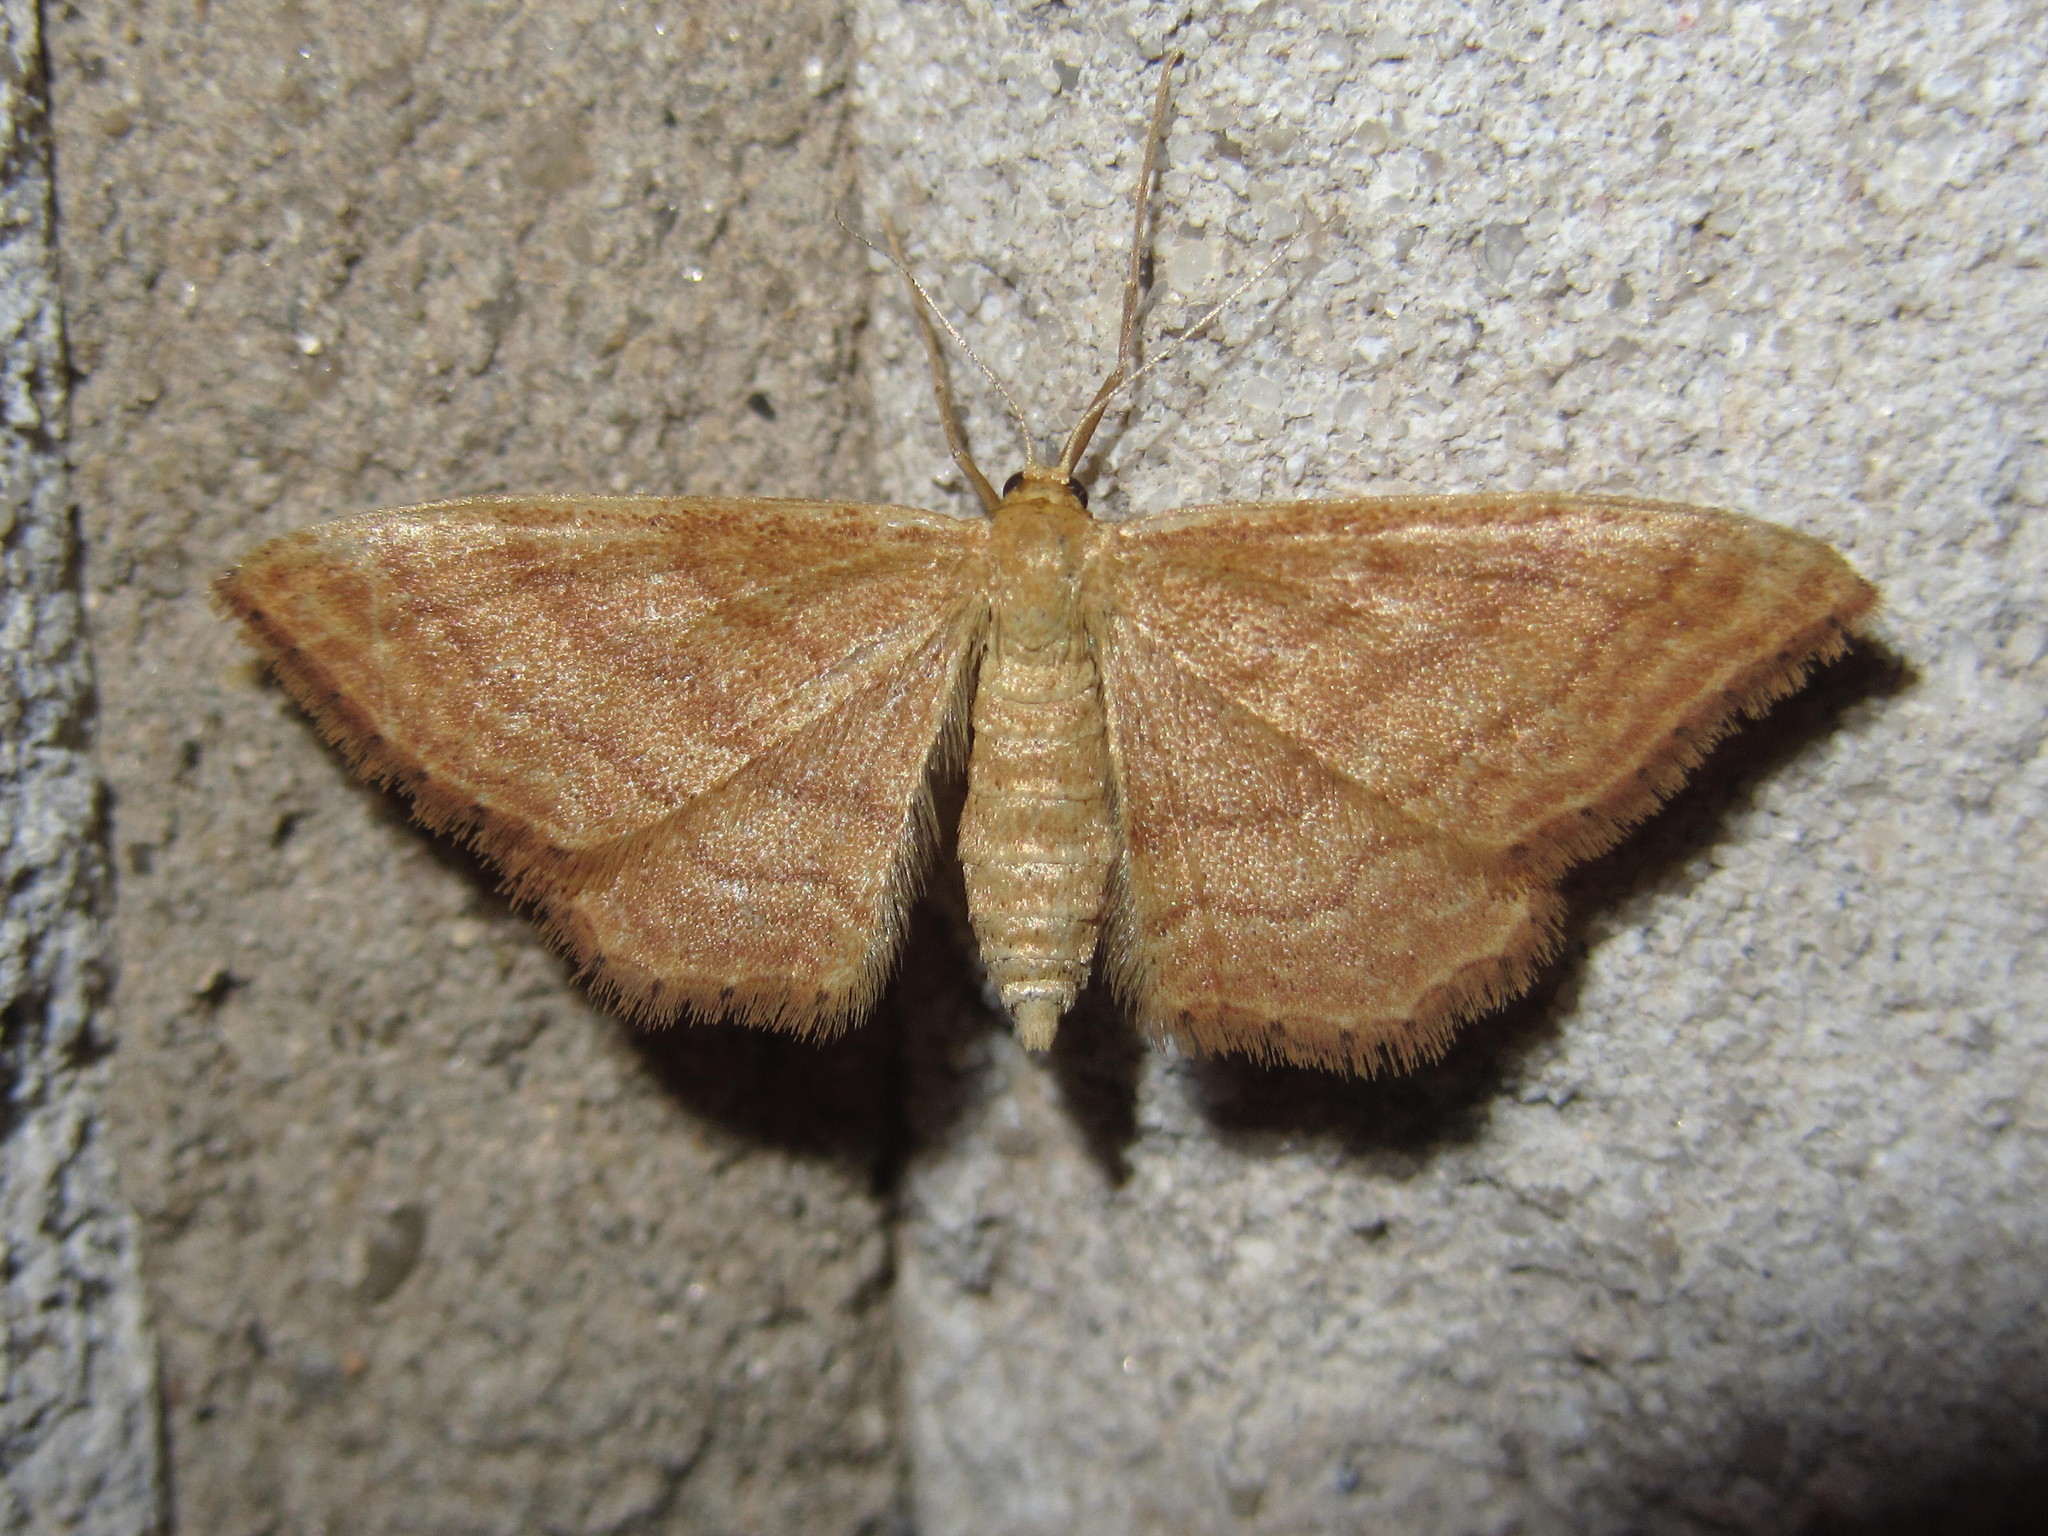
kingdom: Animalia
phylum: Arthropoda
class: Insecta
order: Lepidoptera
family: Geometridae
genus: Idaea
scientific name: Idaea ochrata
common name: Bright wave
